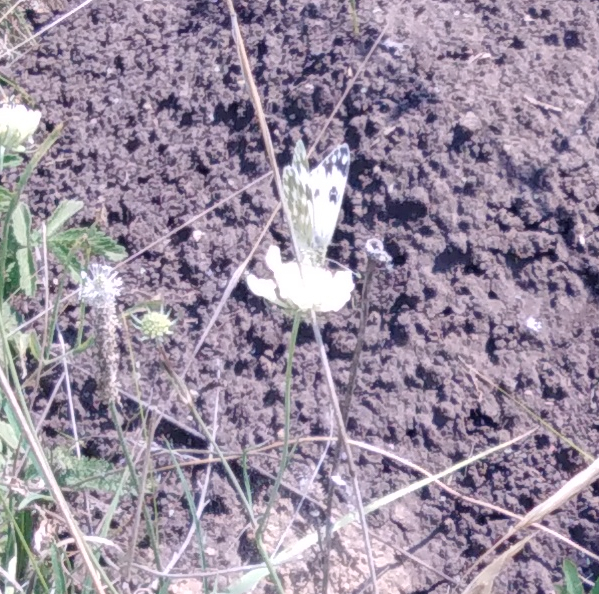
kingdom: Animalia
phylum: Arthropoda
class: Insecta
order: Lepidoptera
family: Pieridae
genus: Pontia
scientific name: Pontia edusa
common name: Eastern bath white
